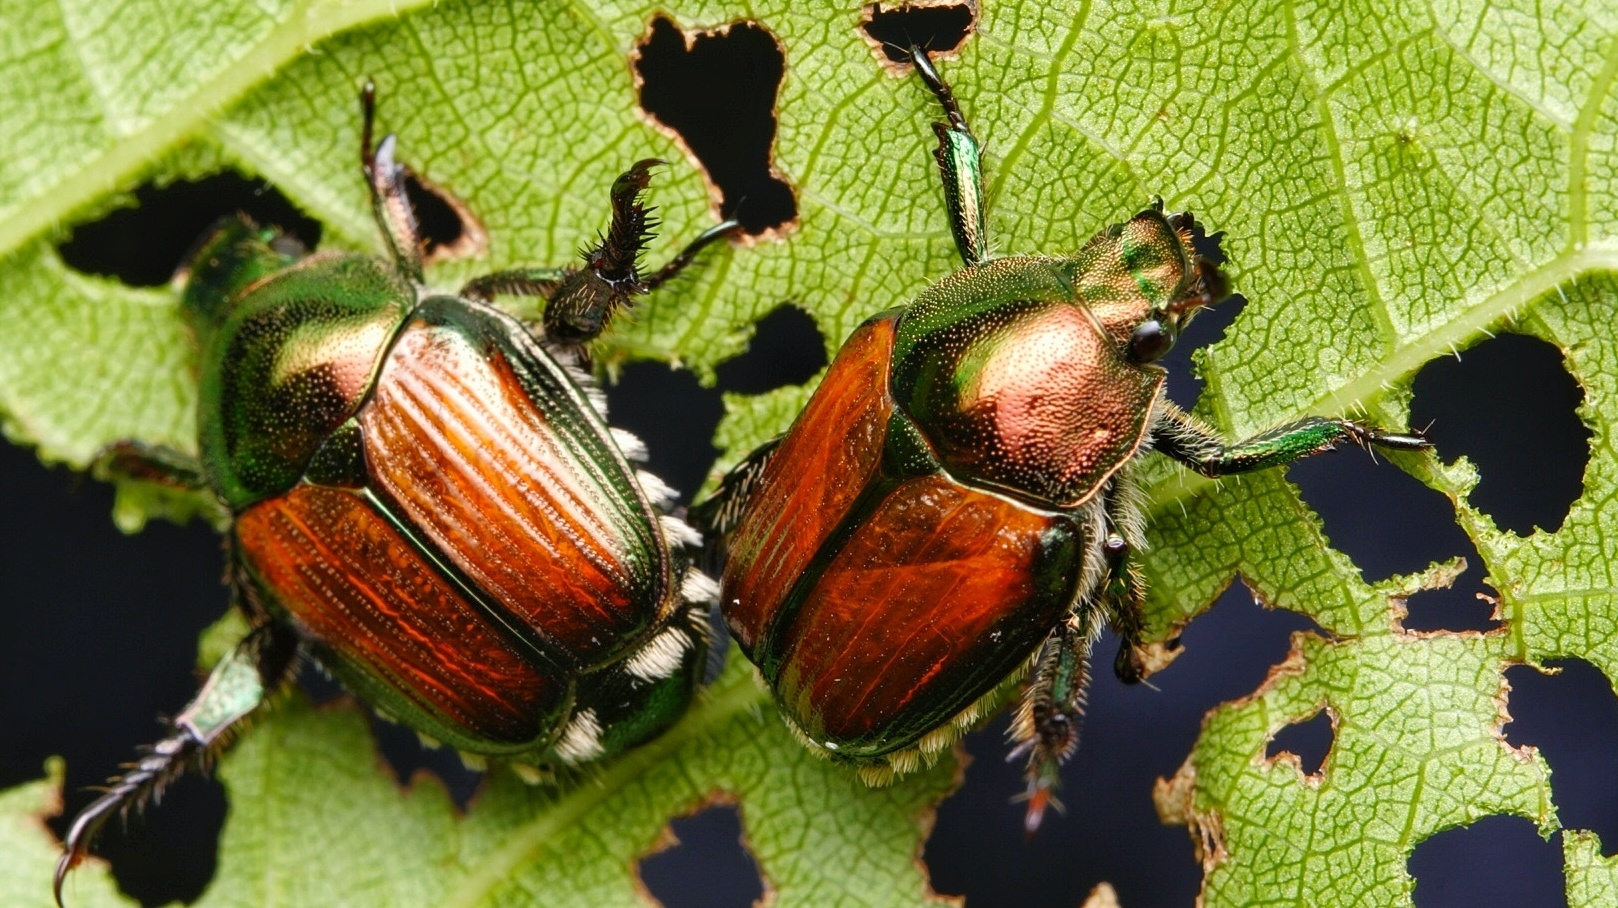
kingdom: Animalia
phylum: Arthropoda
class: Insecta
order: Coleoptera
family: Scarabaeidae
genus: Popillia
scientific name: Popillia japonica
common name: Japanese beetle
